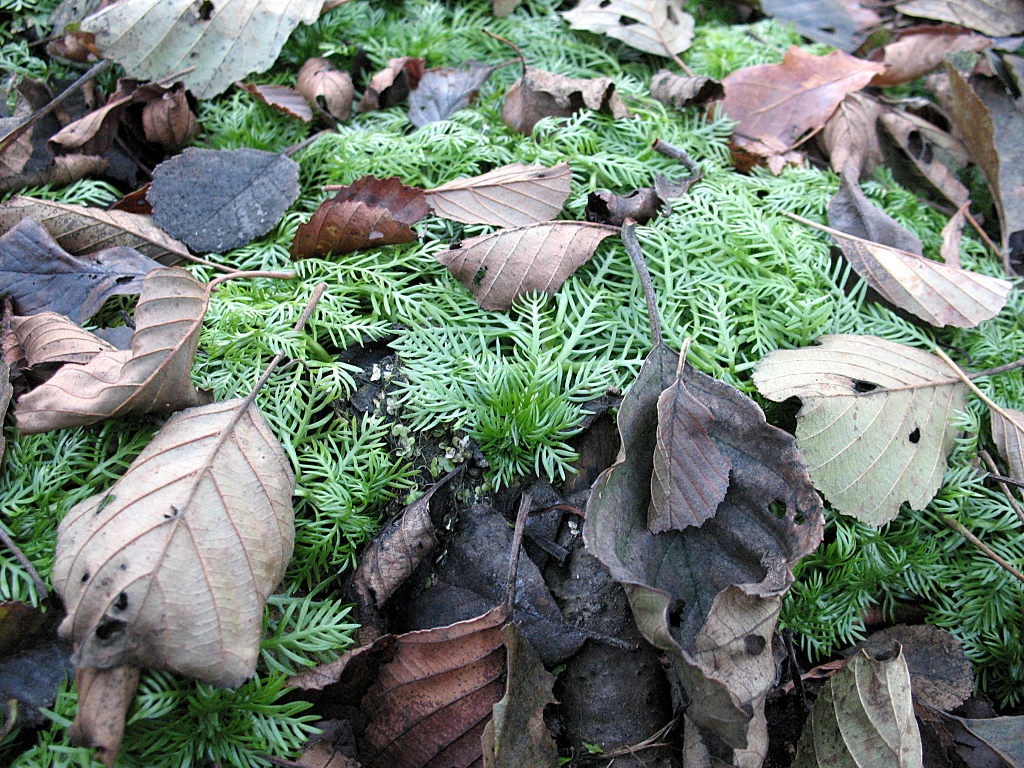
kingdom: Plantae
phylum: Tracheophyta
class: Magnoliopsida
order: Ericales
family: Primulaceae
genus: Hottonia
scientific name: Hottonia palustris
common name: Water-violet
